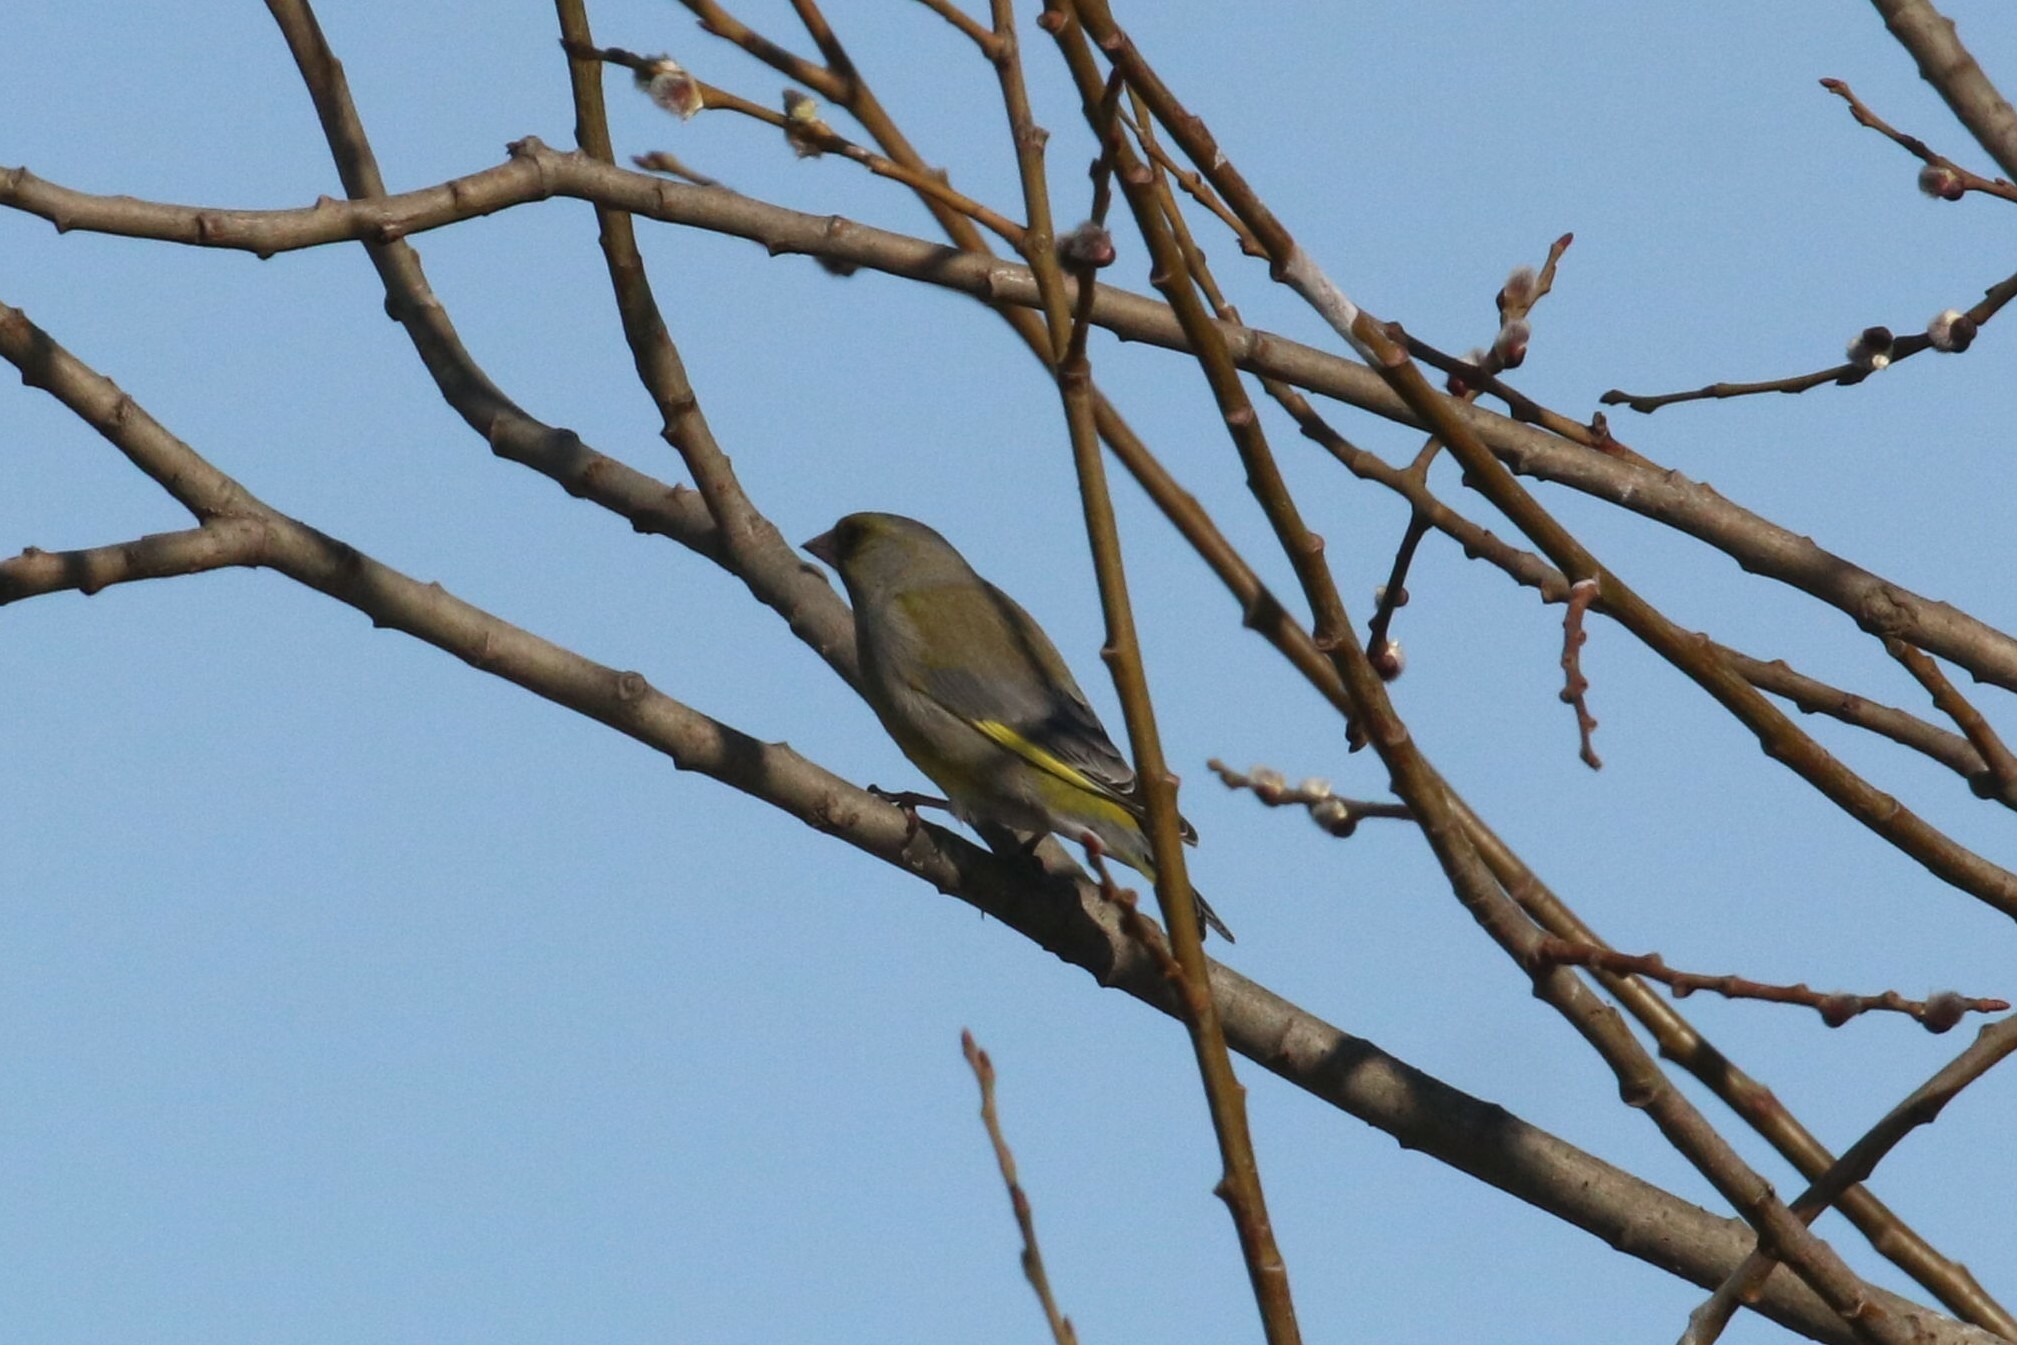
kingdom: Plantae
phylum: Tracheophyta
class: Liliopsida
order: Poales
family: Poaceae
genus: Chloris
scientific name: Chloris chloris
